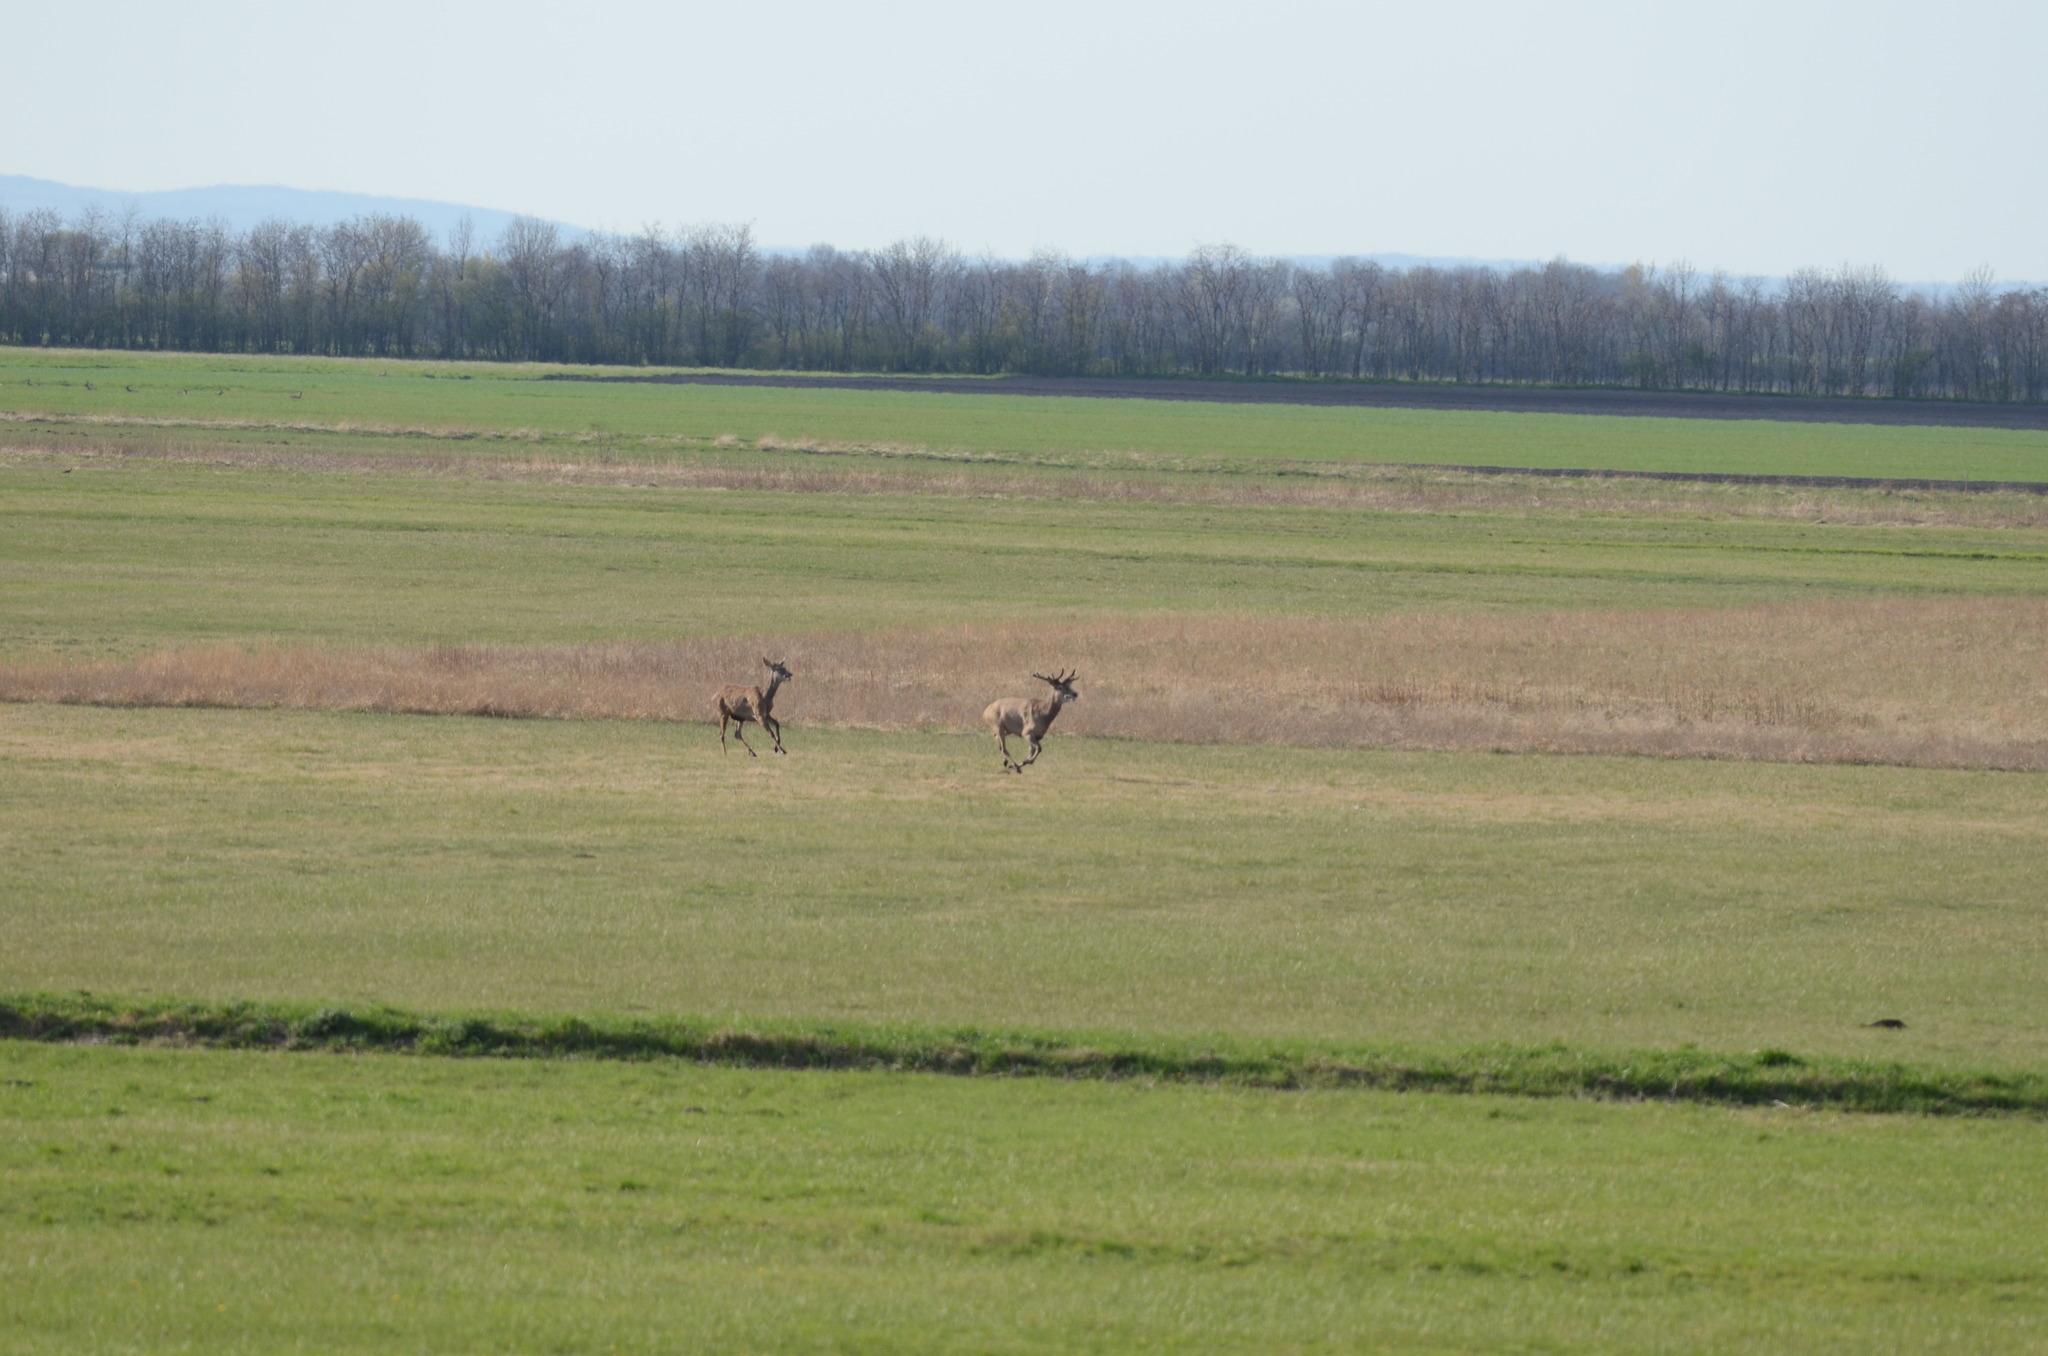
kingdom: Animalia
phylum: Chordata
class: Mammalia
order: Artiodactyla
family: Cervidae
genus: Cervus
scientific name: Cervus elaphus
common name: Red deer
